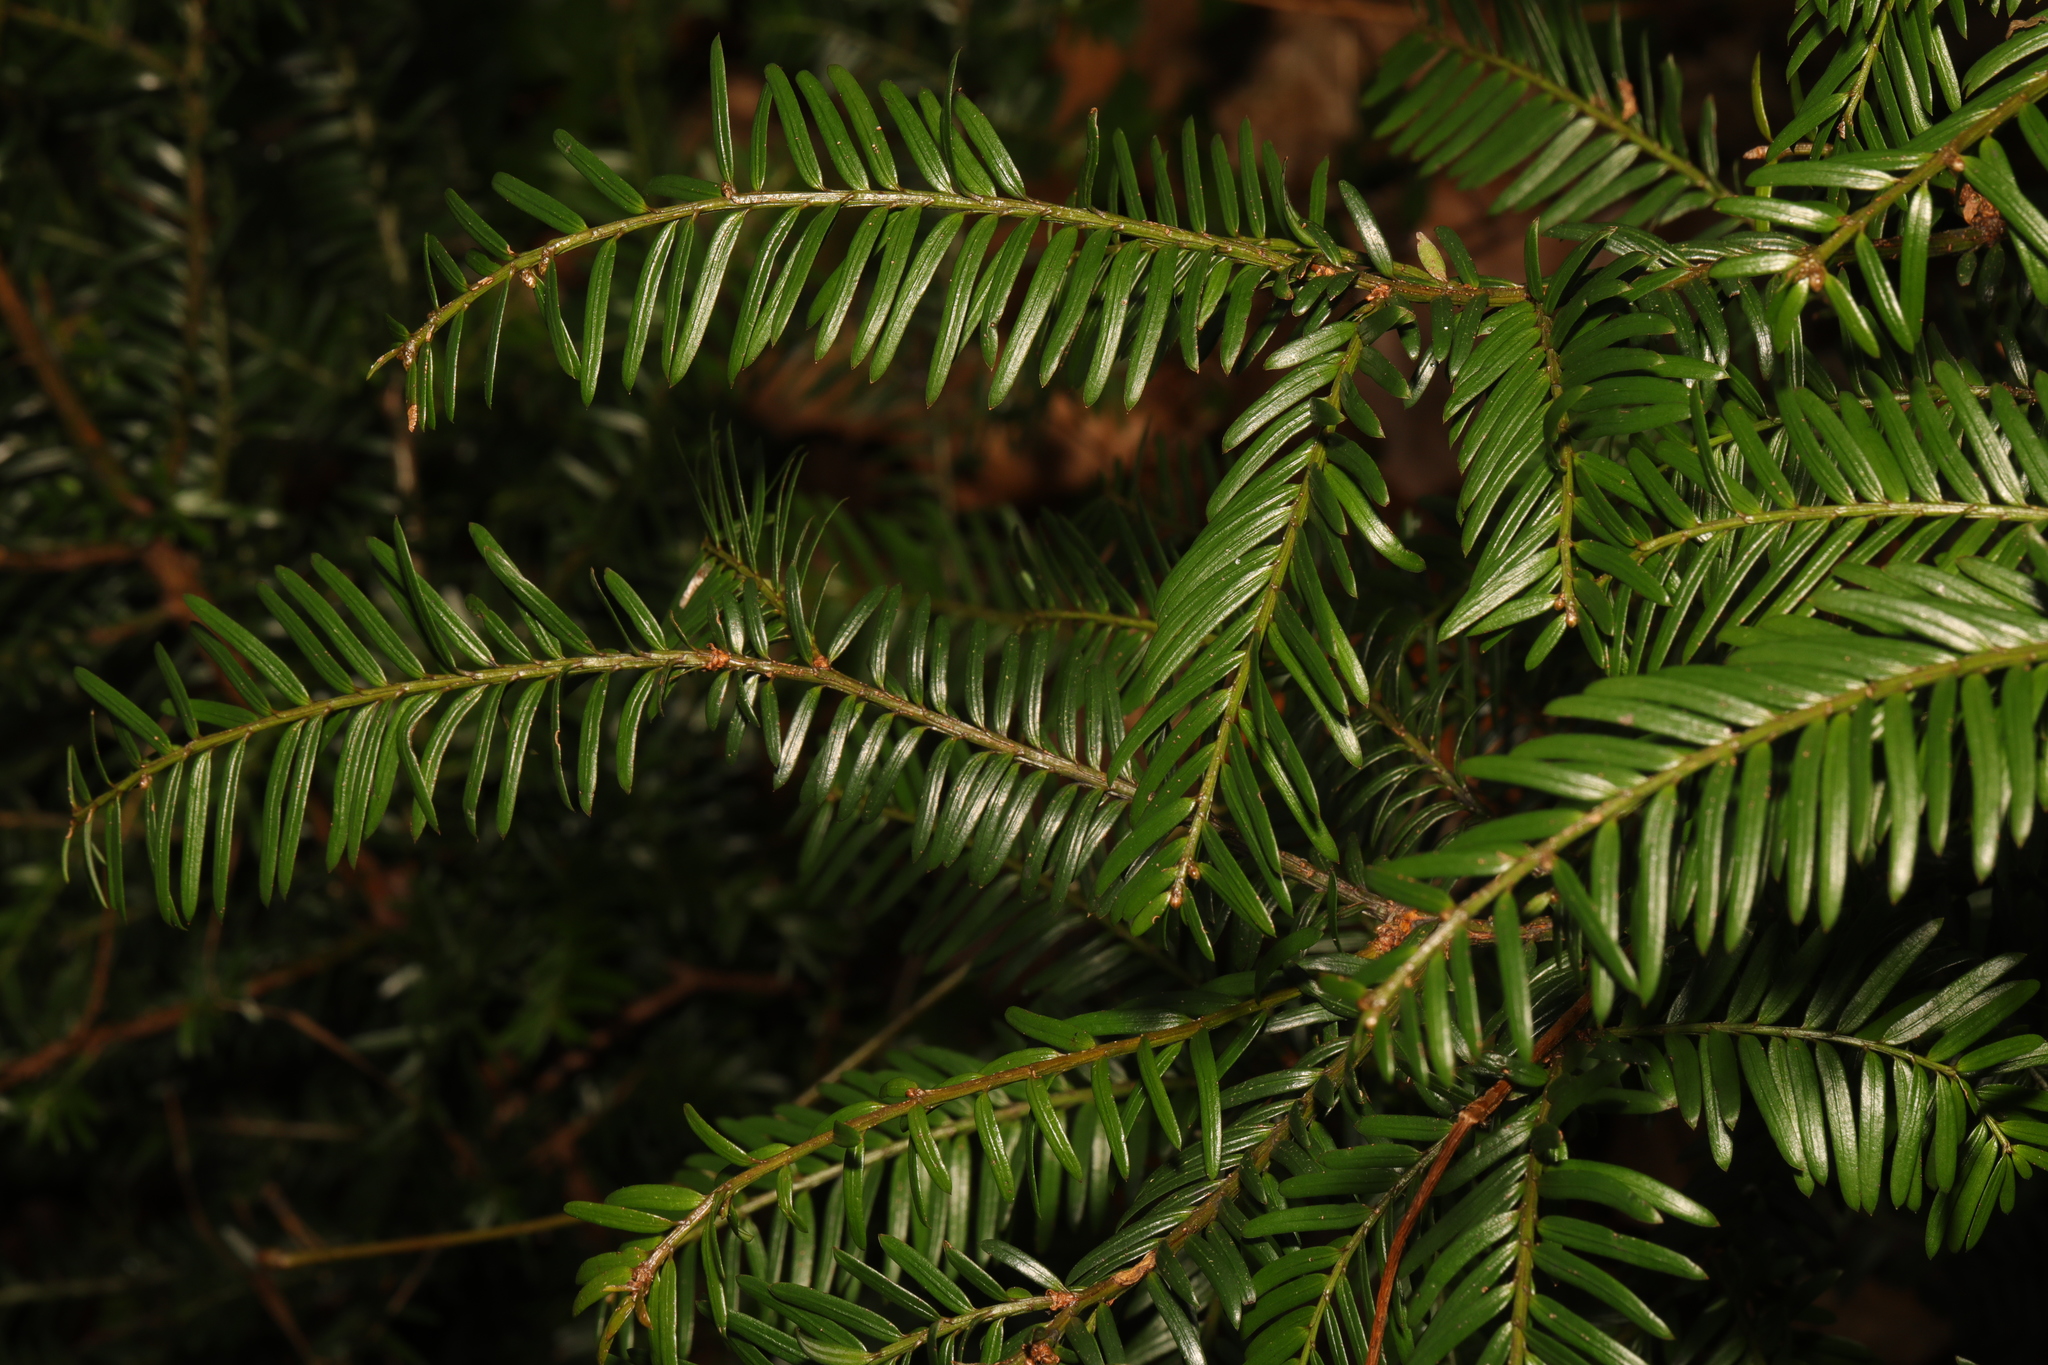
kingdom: Plantae
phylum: Tracheophyta
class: Pinopsida
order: Pinales
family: Taxaceae
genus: Taxus
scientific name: Taxus baccata
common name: Yew
